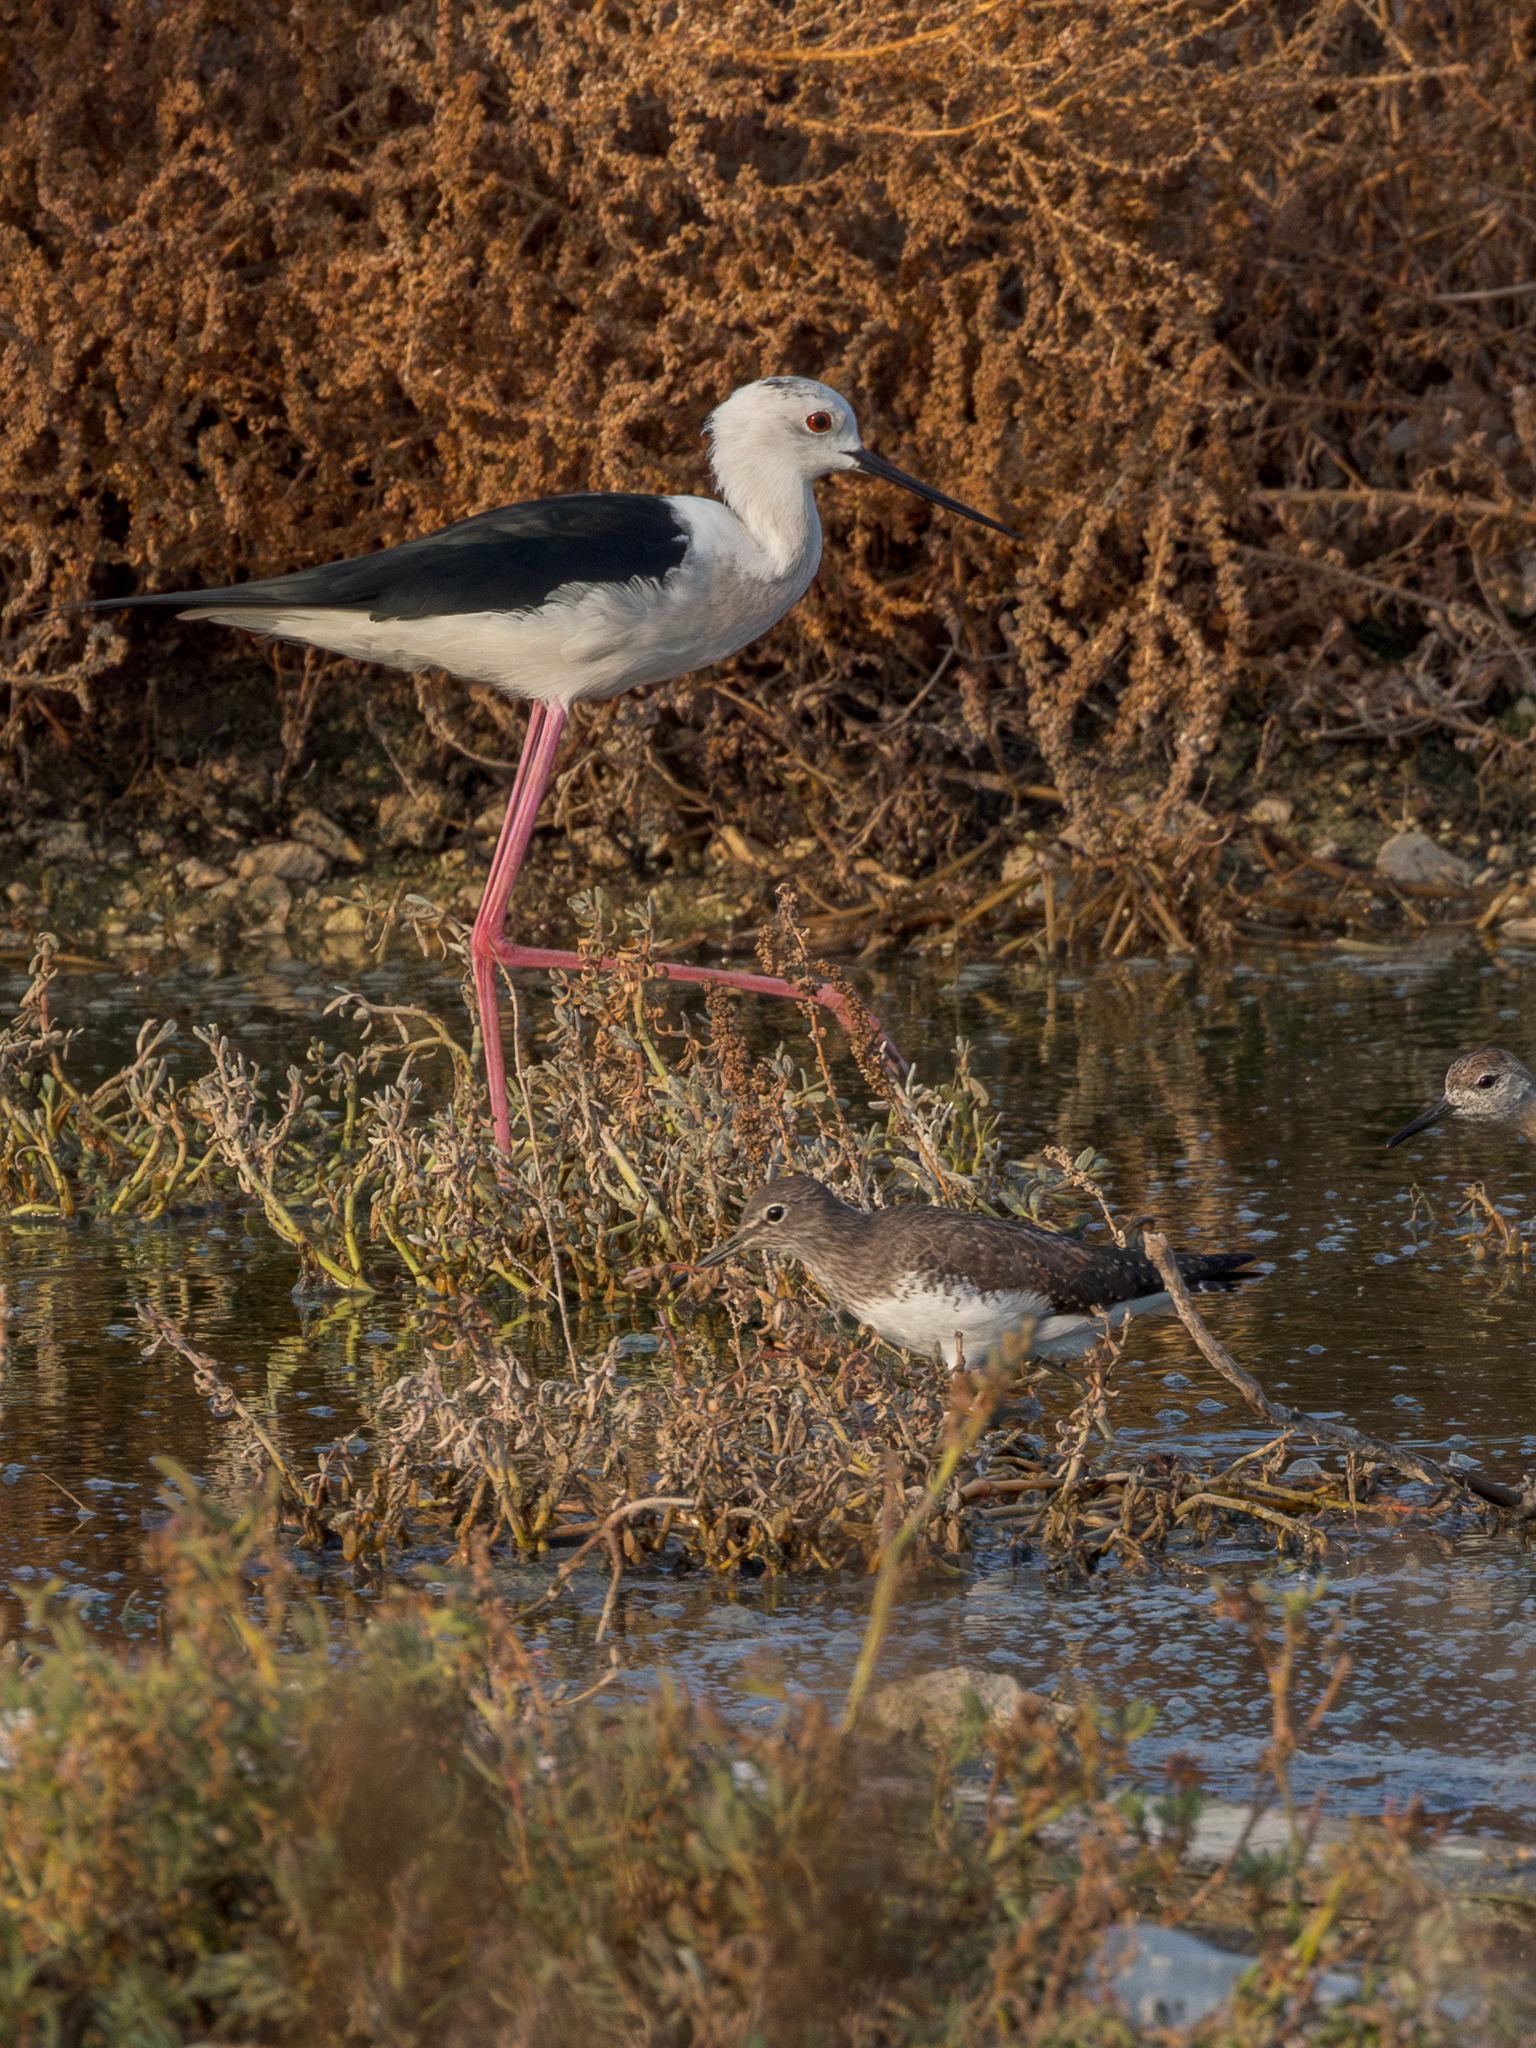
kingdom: Animalia
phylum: Chordata
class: Aves
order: Charadriiformes
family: Scolopacidae
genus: Tringa
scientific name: Tringa ochropus
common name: Green sandpiper
